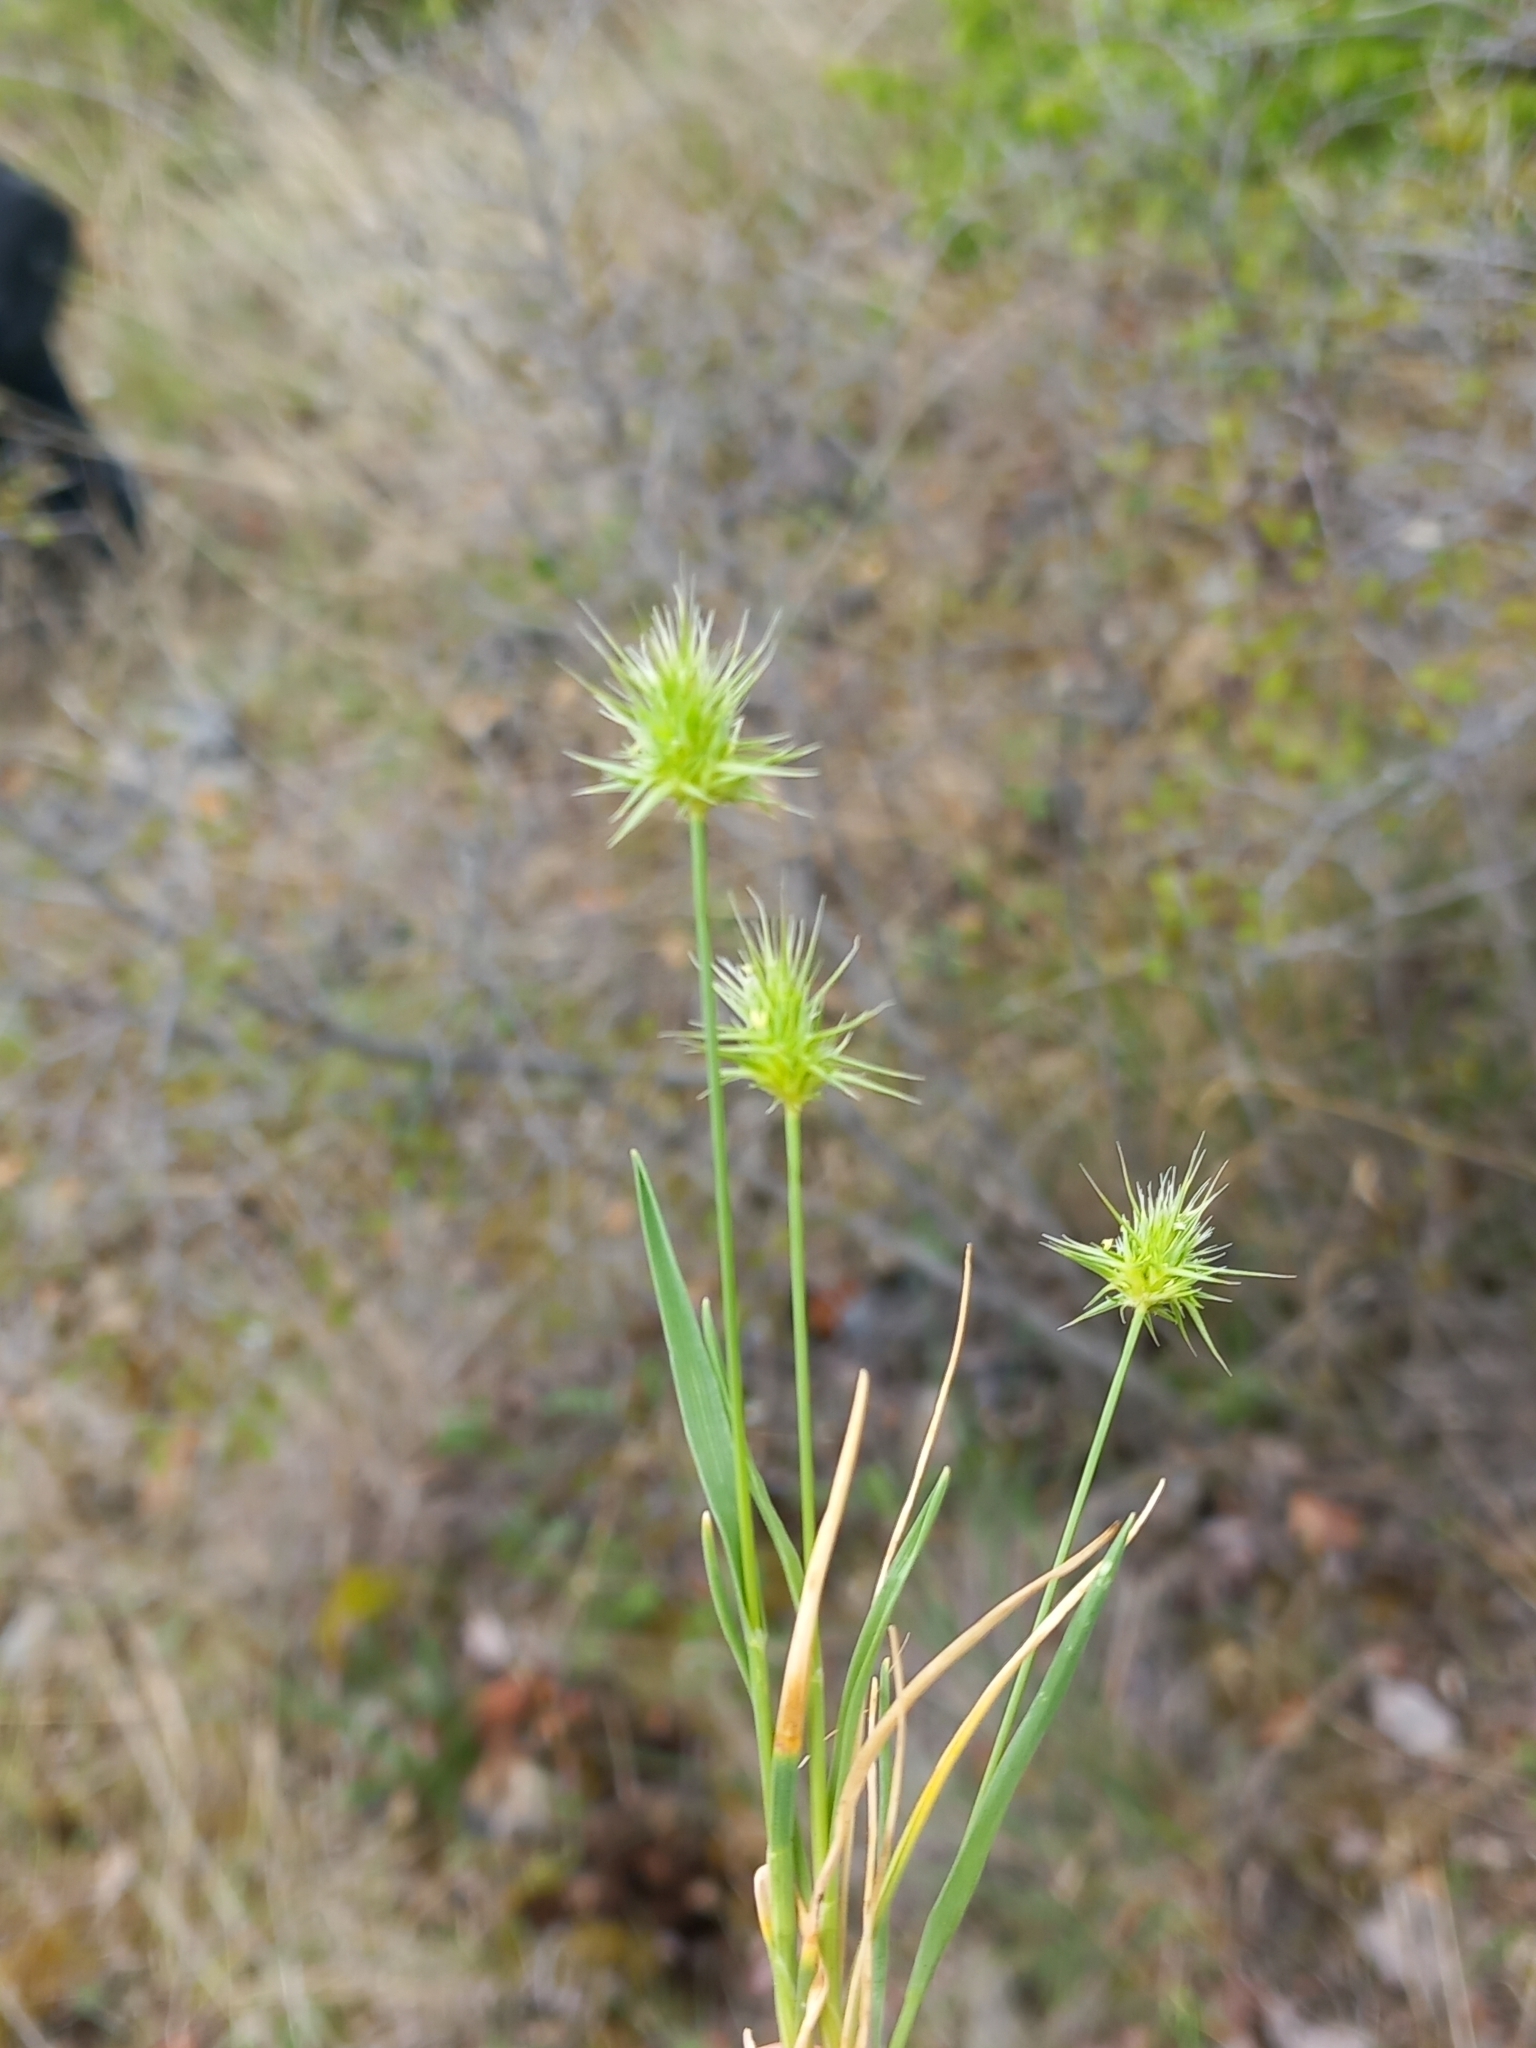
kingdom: Plantae
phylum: Tracheophyta
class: Liliopsida
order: Poales
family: Poaceae
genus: Echinaria
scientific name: Echinaria capitata
